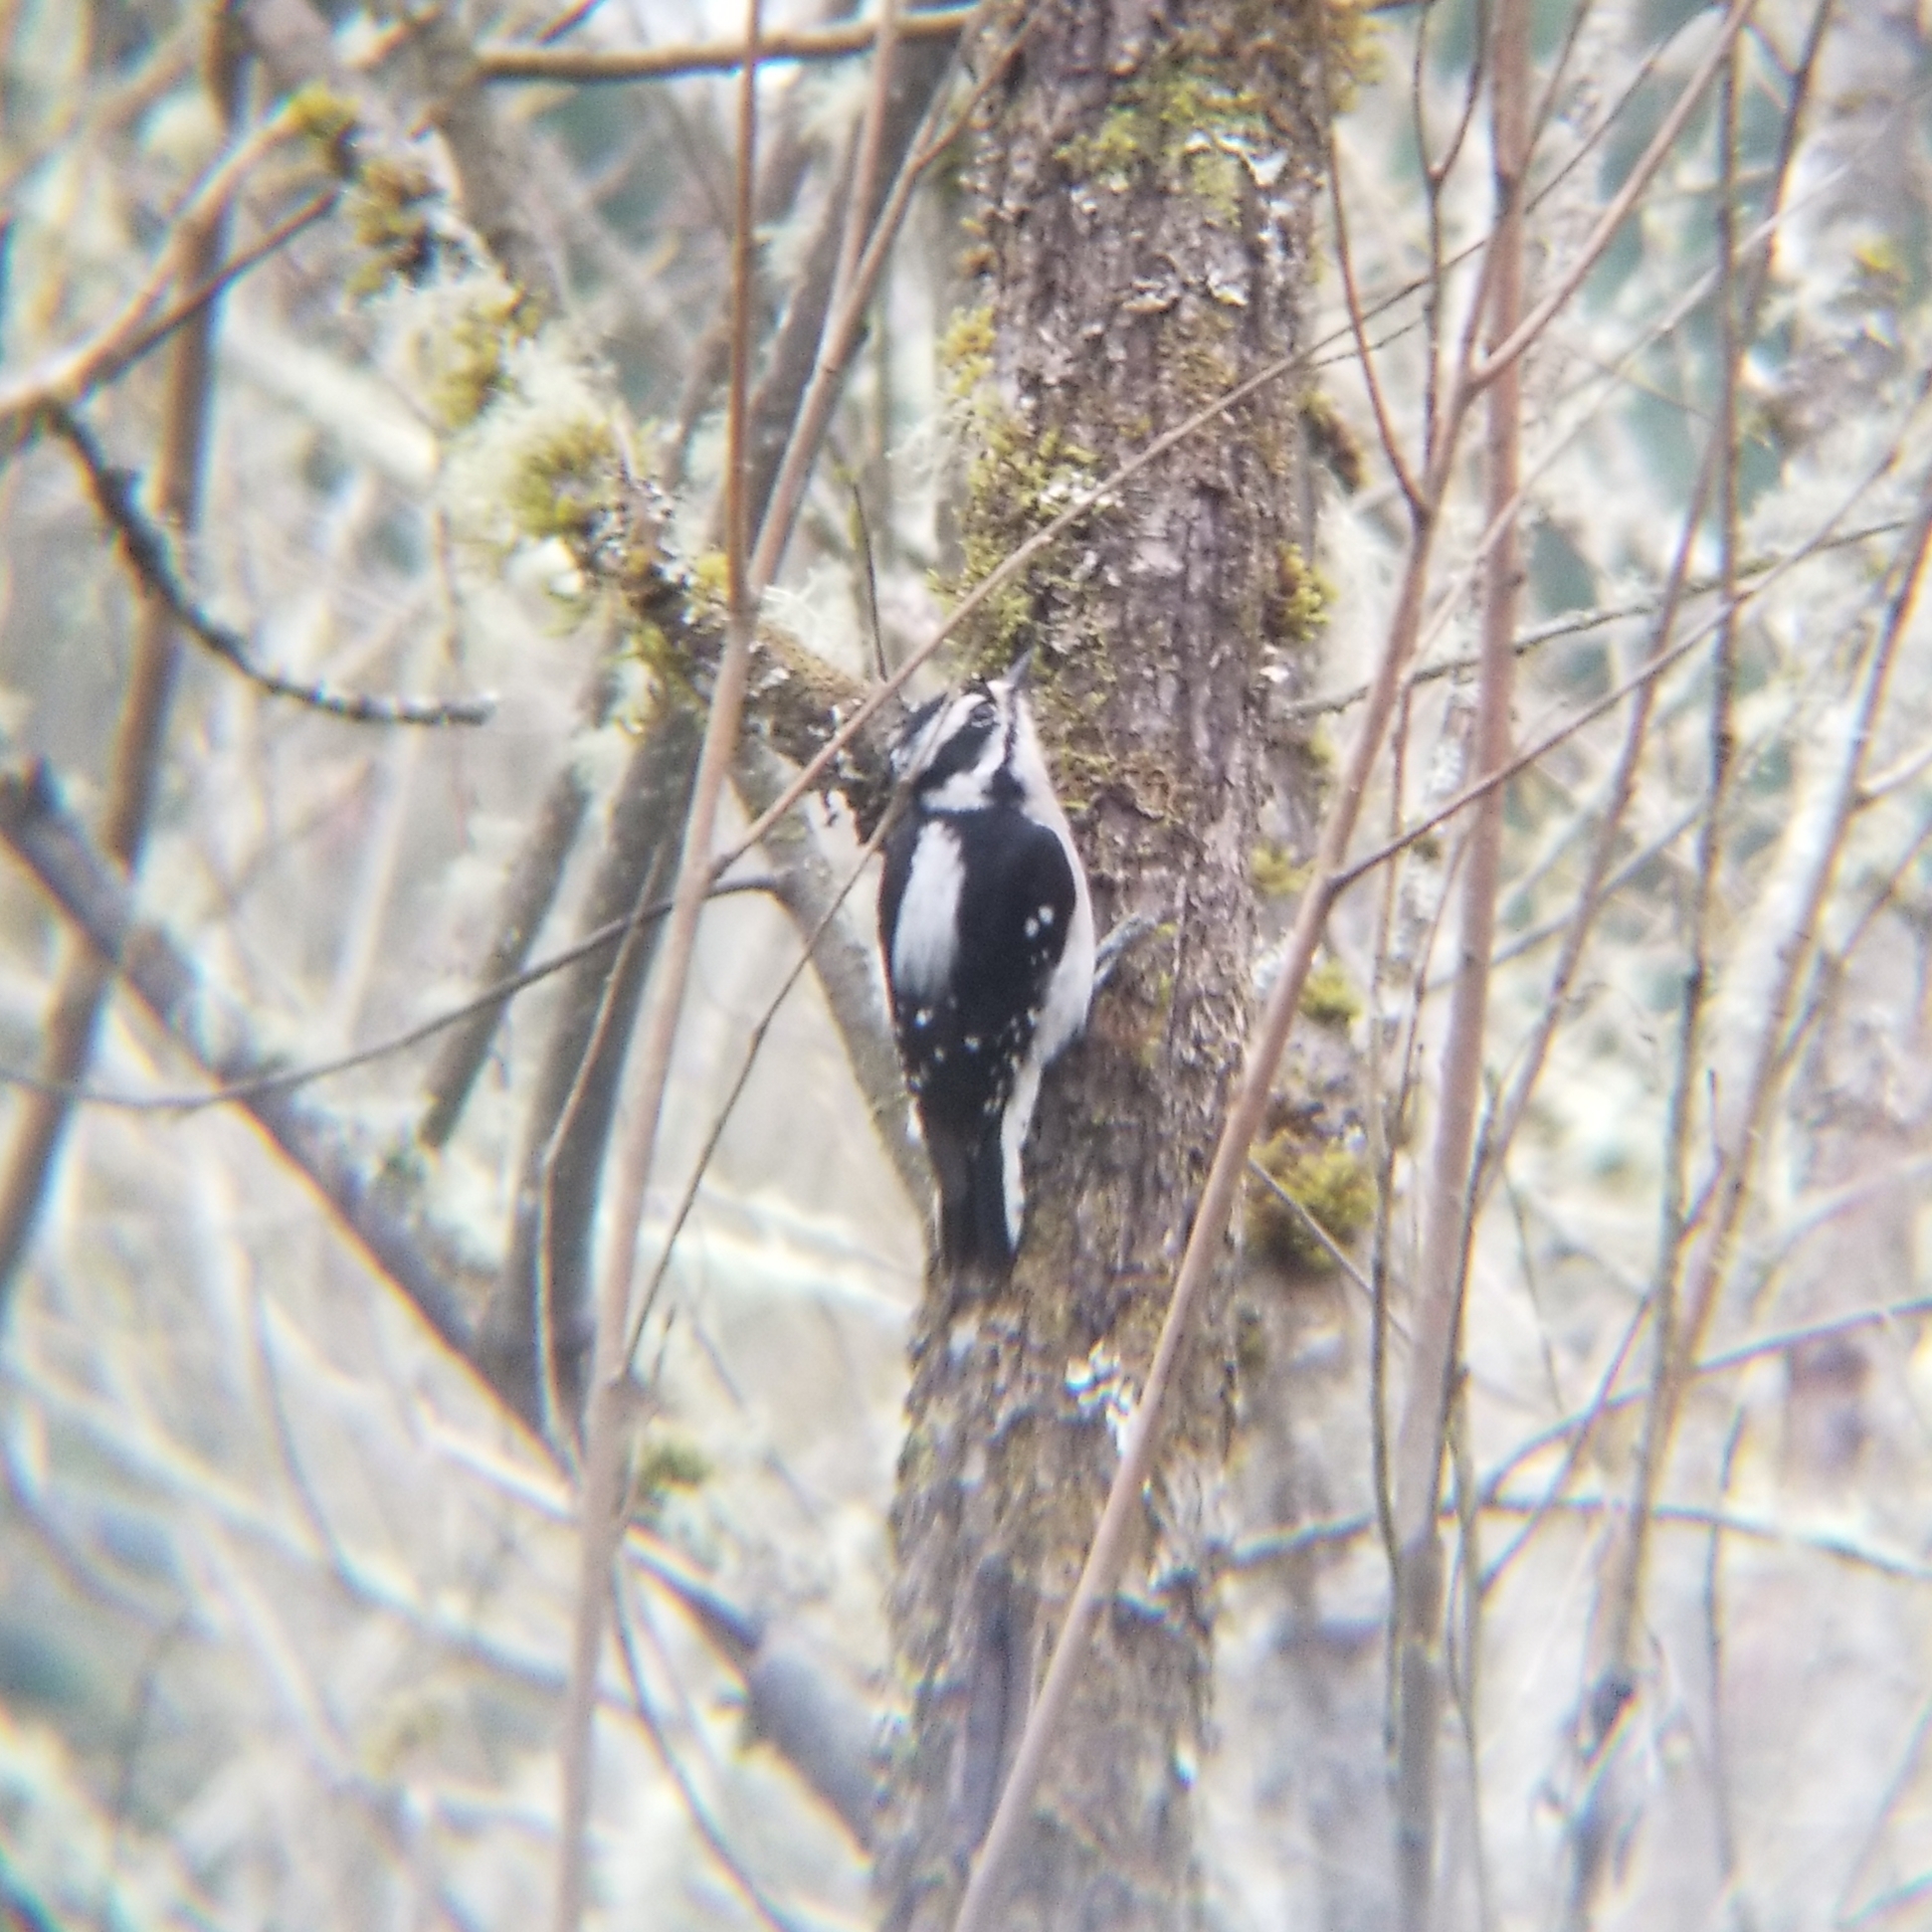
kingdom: Animalia
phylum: Chordata
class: Aves
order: Piciformes
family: Picidae
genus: Dryobates
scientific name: Dryobates pubescens
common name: Downy woodpecker
